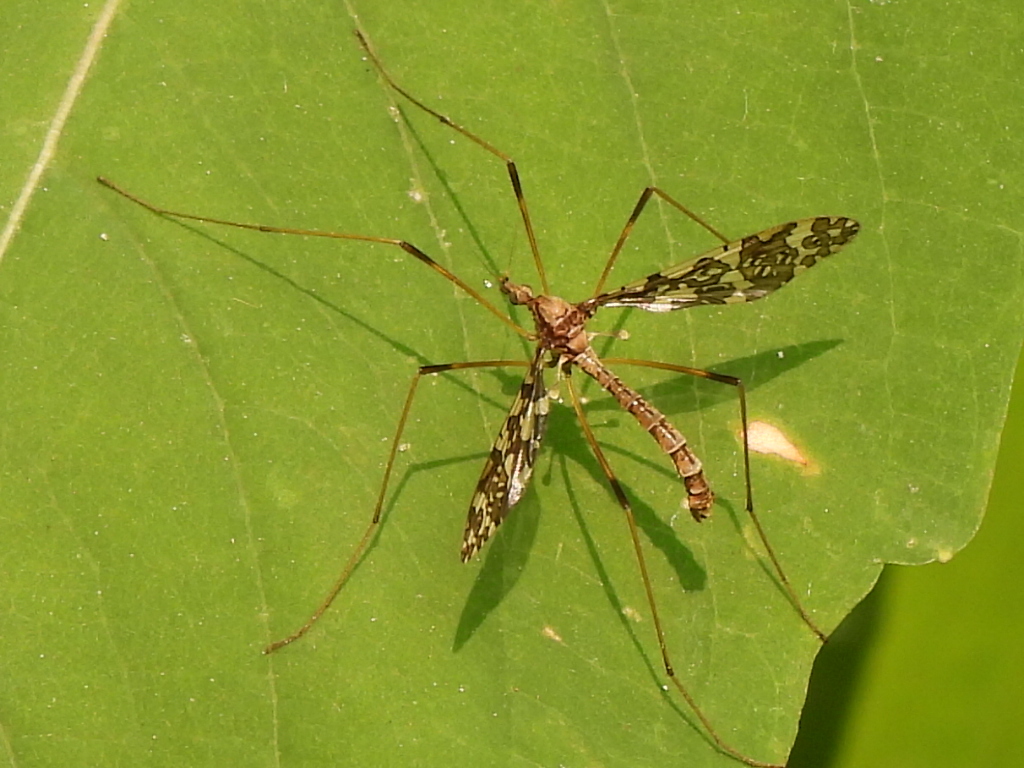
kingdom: Animalia
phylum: Arthropoda
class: Insecta
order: Diptera
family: Limoniidae
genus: Epiphragma
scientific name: Epiphragma fasciapenne
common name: Band-winged crane fly
